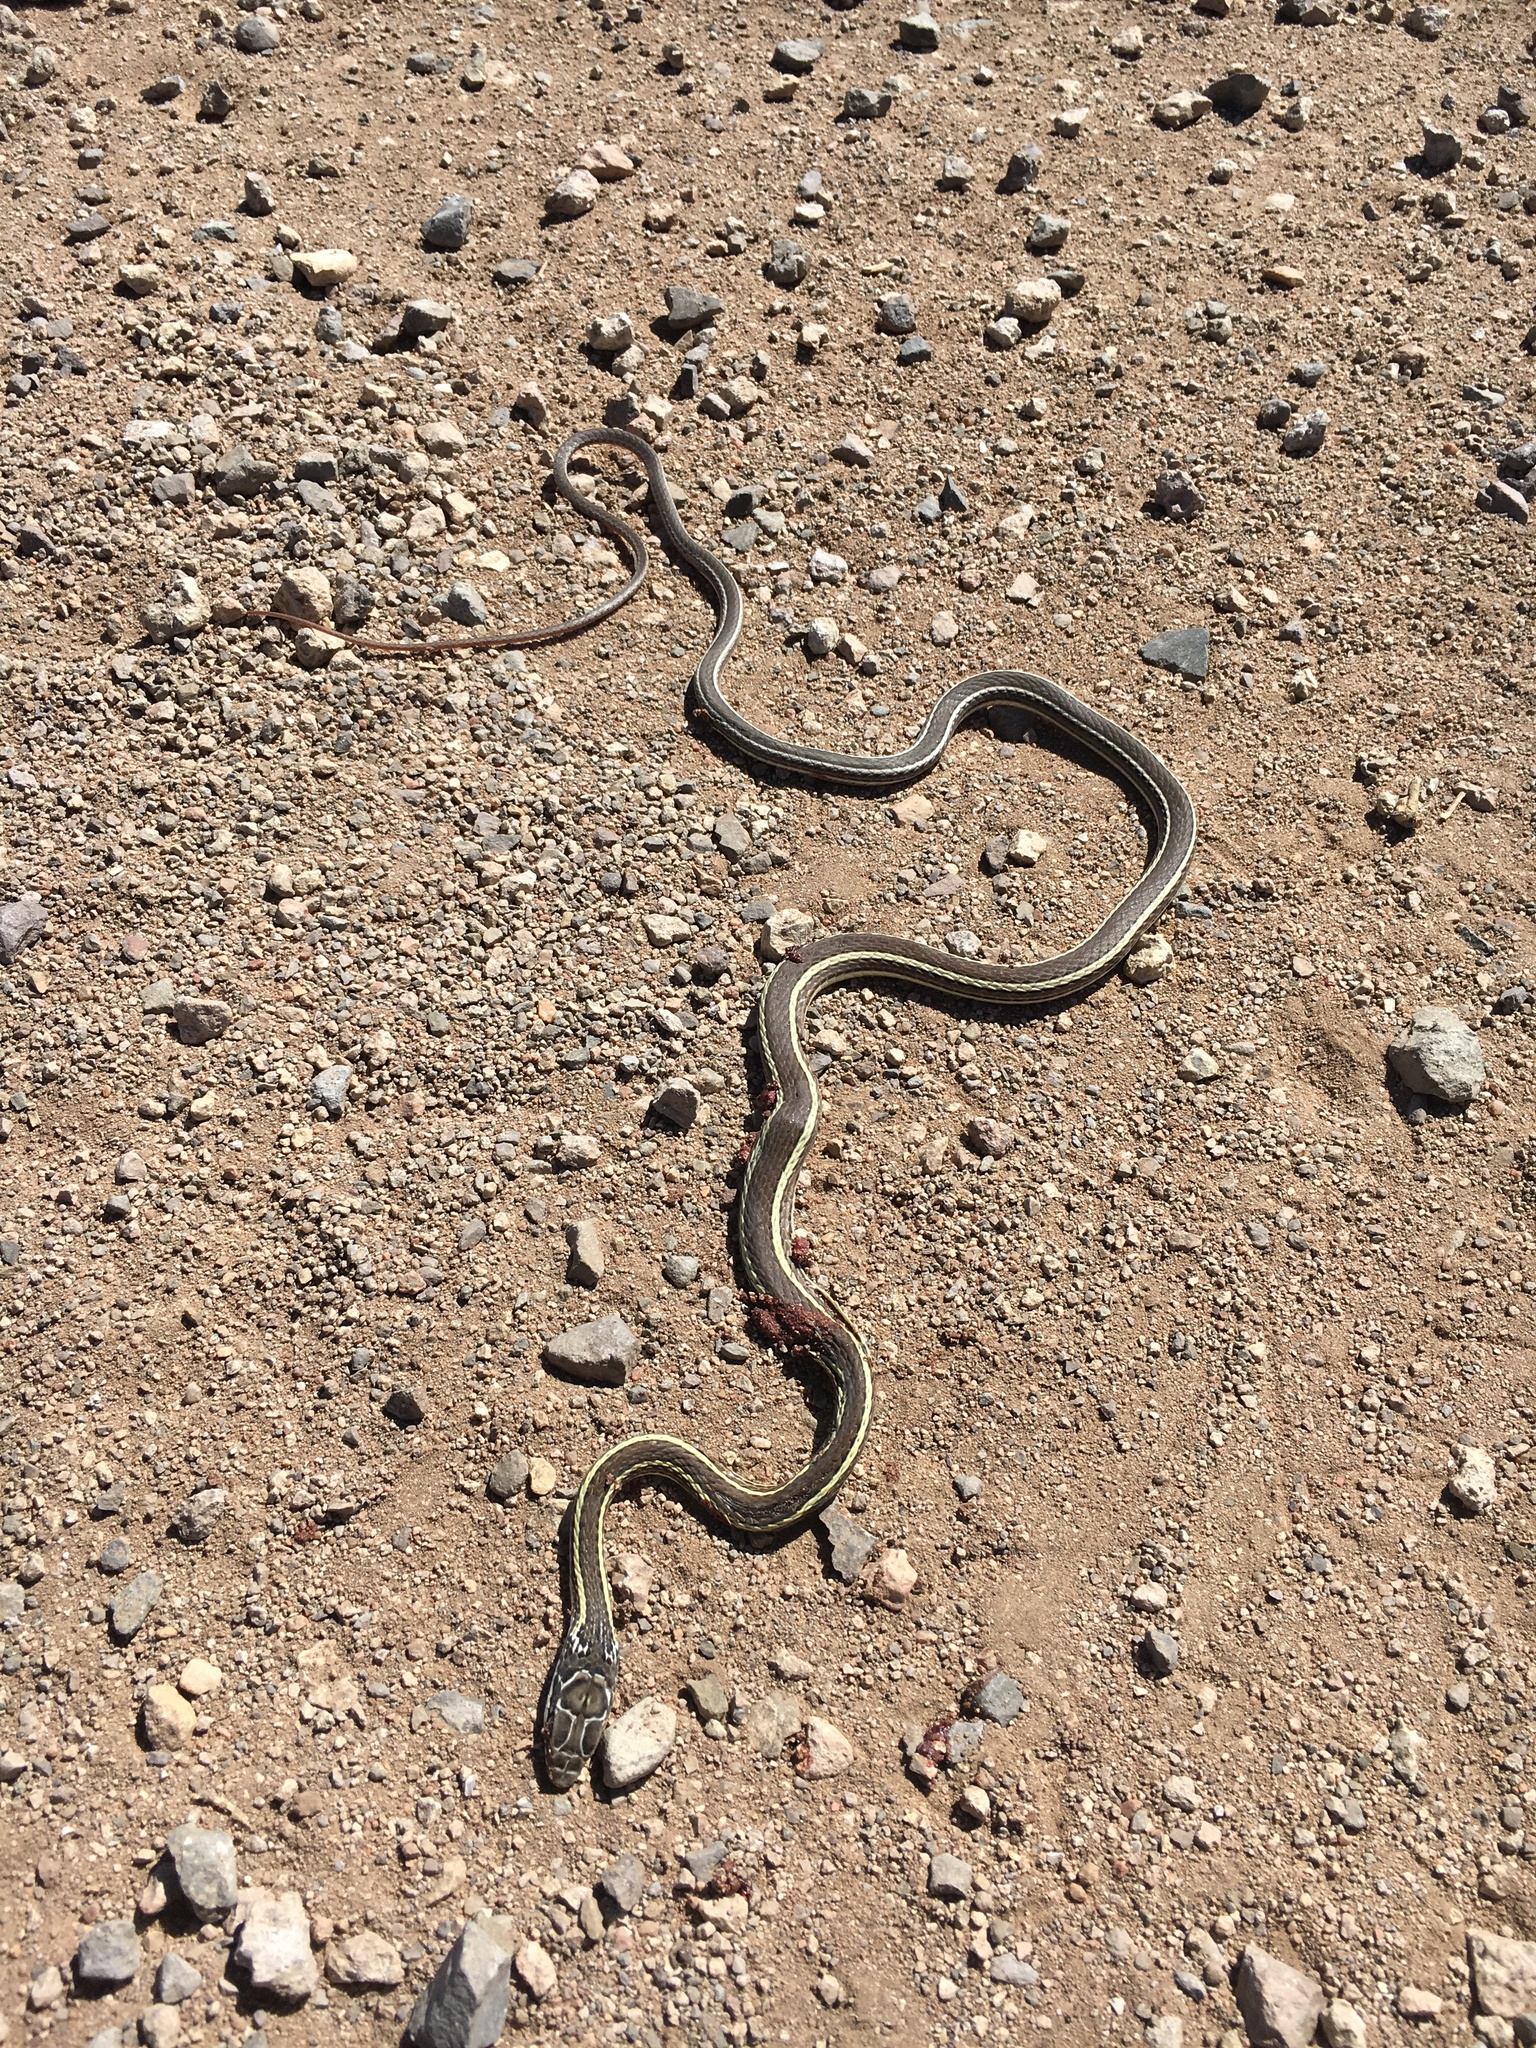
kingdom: Animalia
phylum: Chordata
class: Squamata
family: Colubridae
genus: Masticophis
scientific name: Masticophis taeniatus
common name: Striped whipsnake
